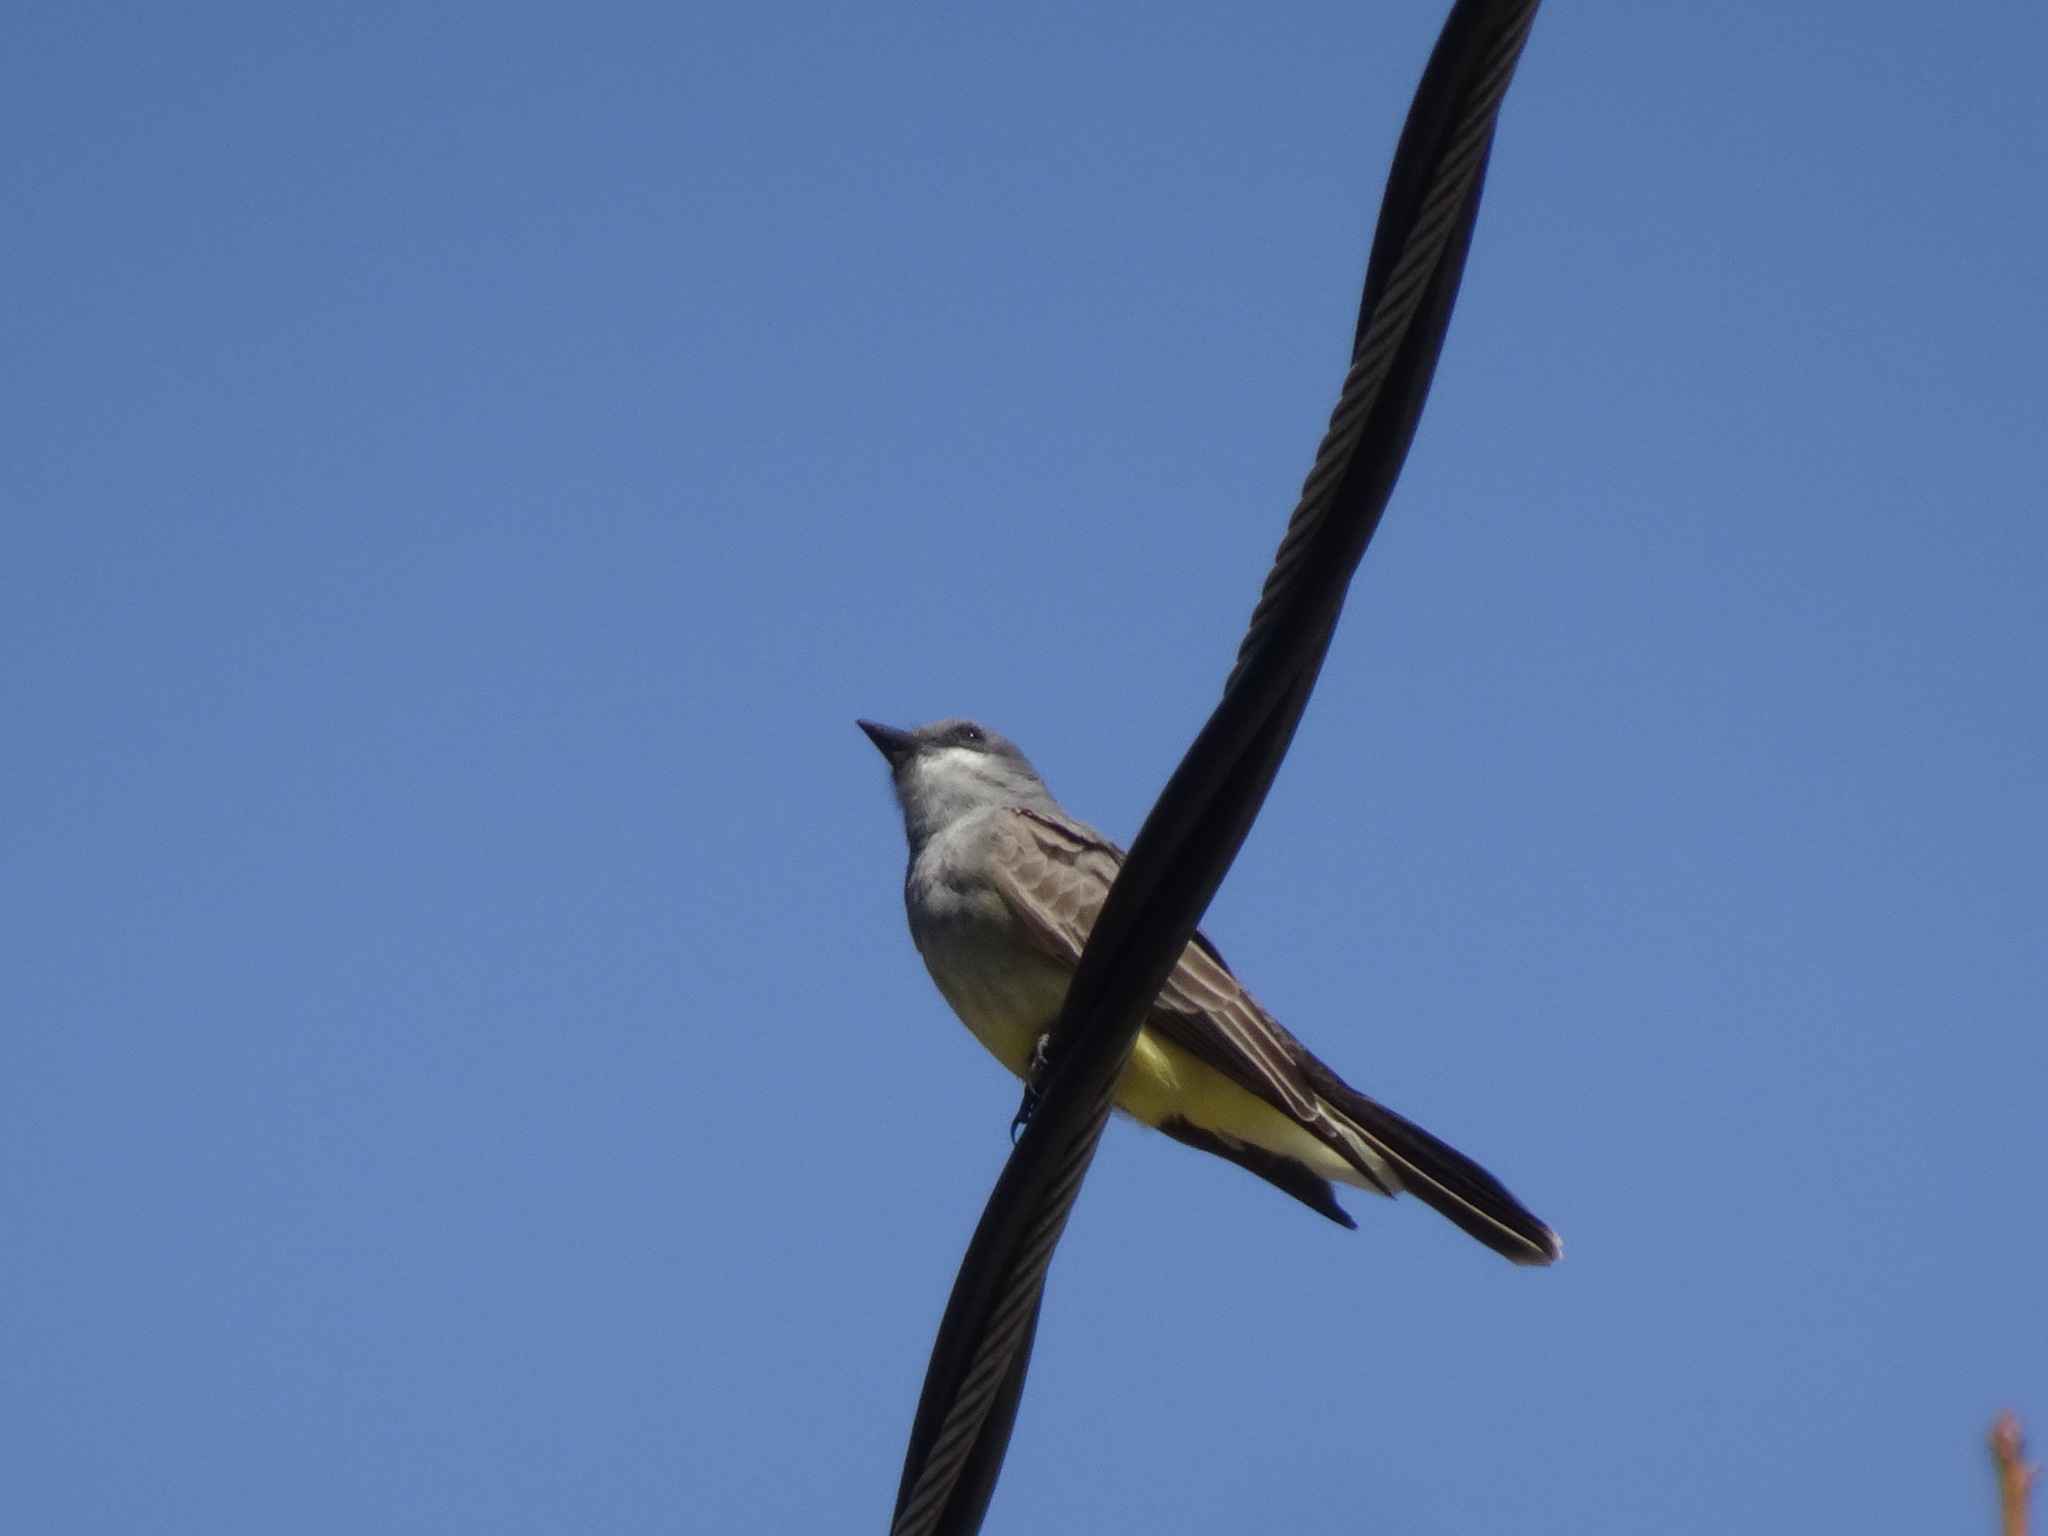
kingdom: Animalia
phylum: Chordata
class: Aves
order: Passeriformes
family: Tyrannidae
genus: Tyrannus
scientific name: Tyrannus vociferans
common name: Cassin's kingbird
